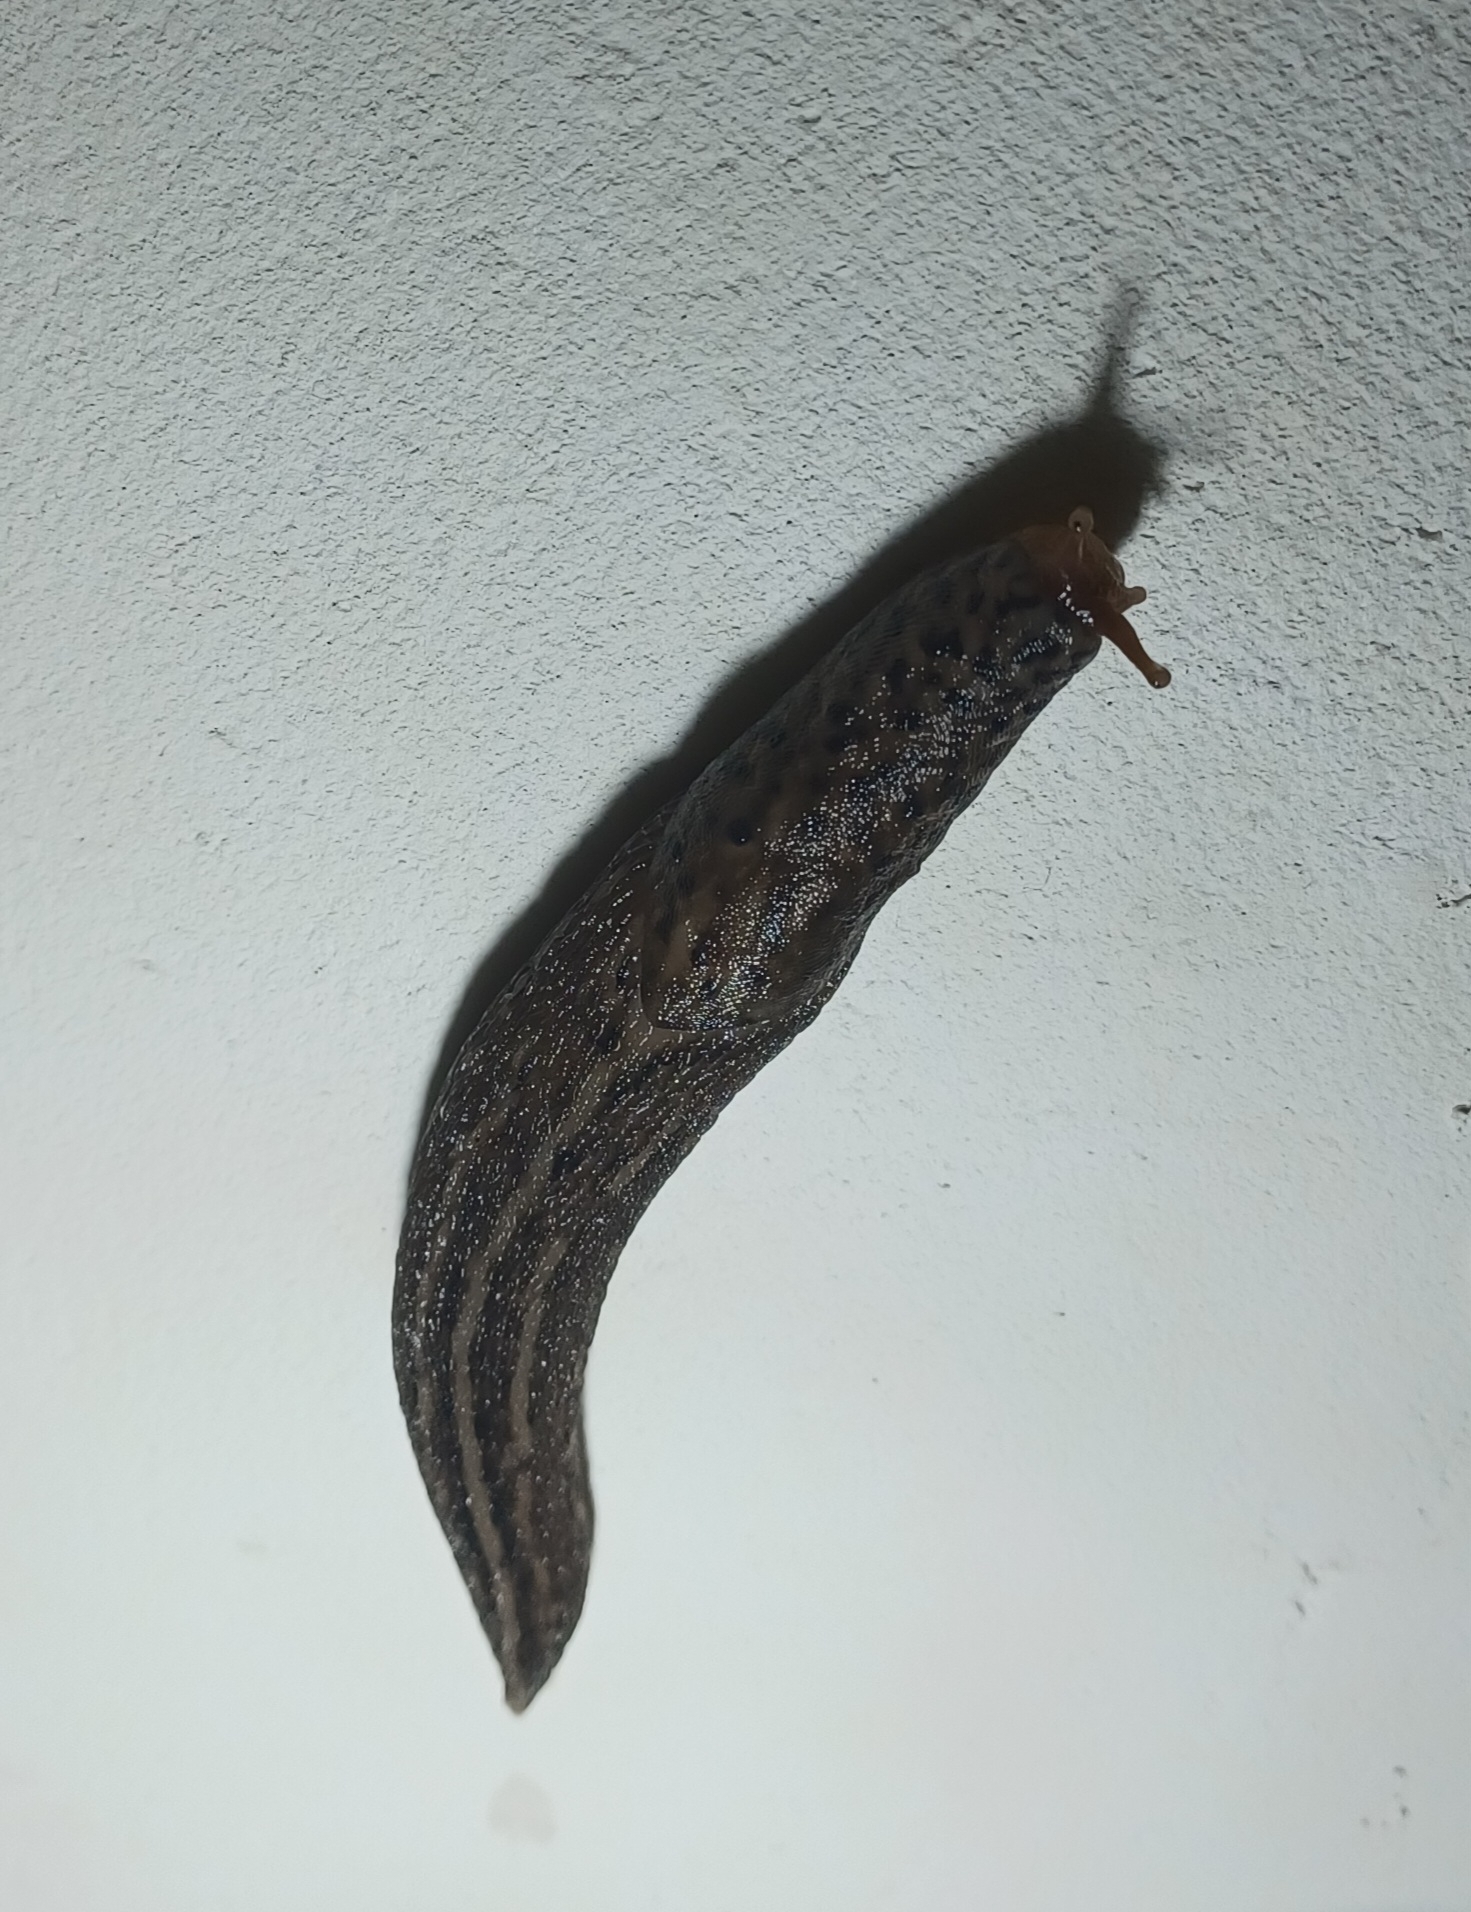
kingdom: Animalia
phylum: Mollusca
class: Gastropoda
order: Stylommatophora
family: Limacidae
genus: Limax
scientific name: Limax maximus
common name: Great grey slug
